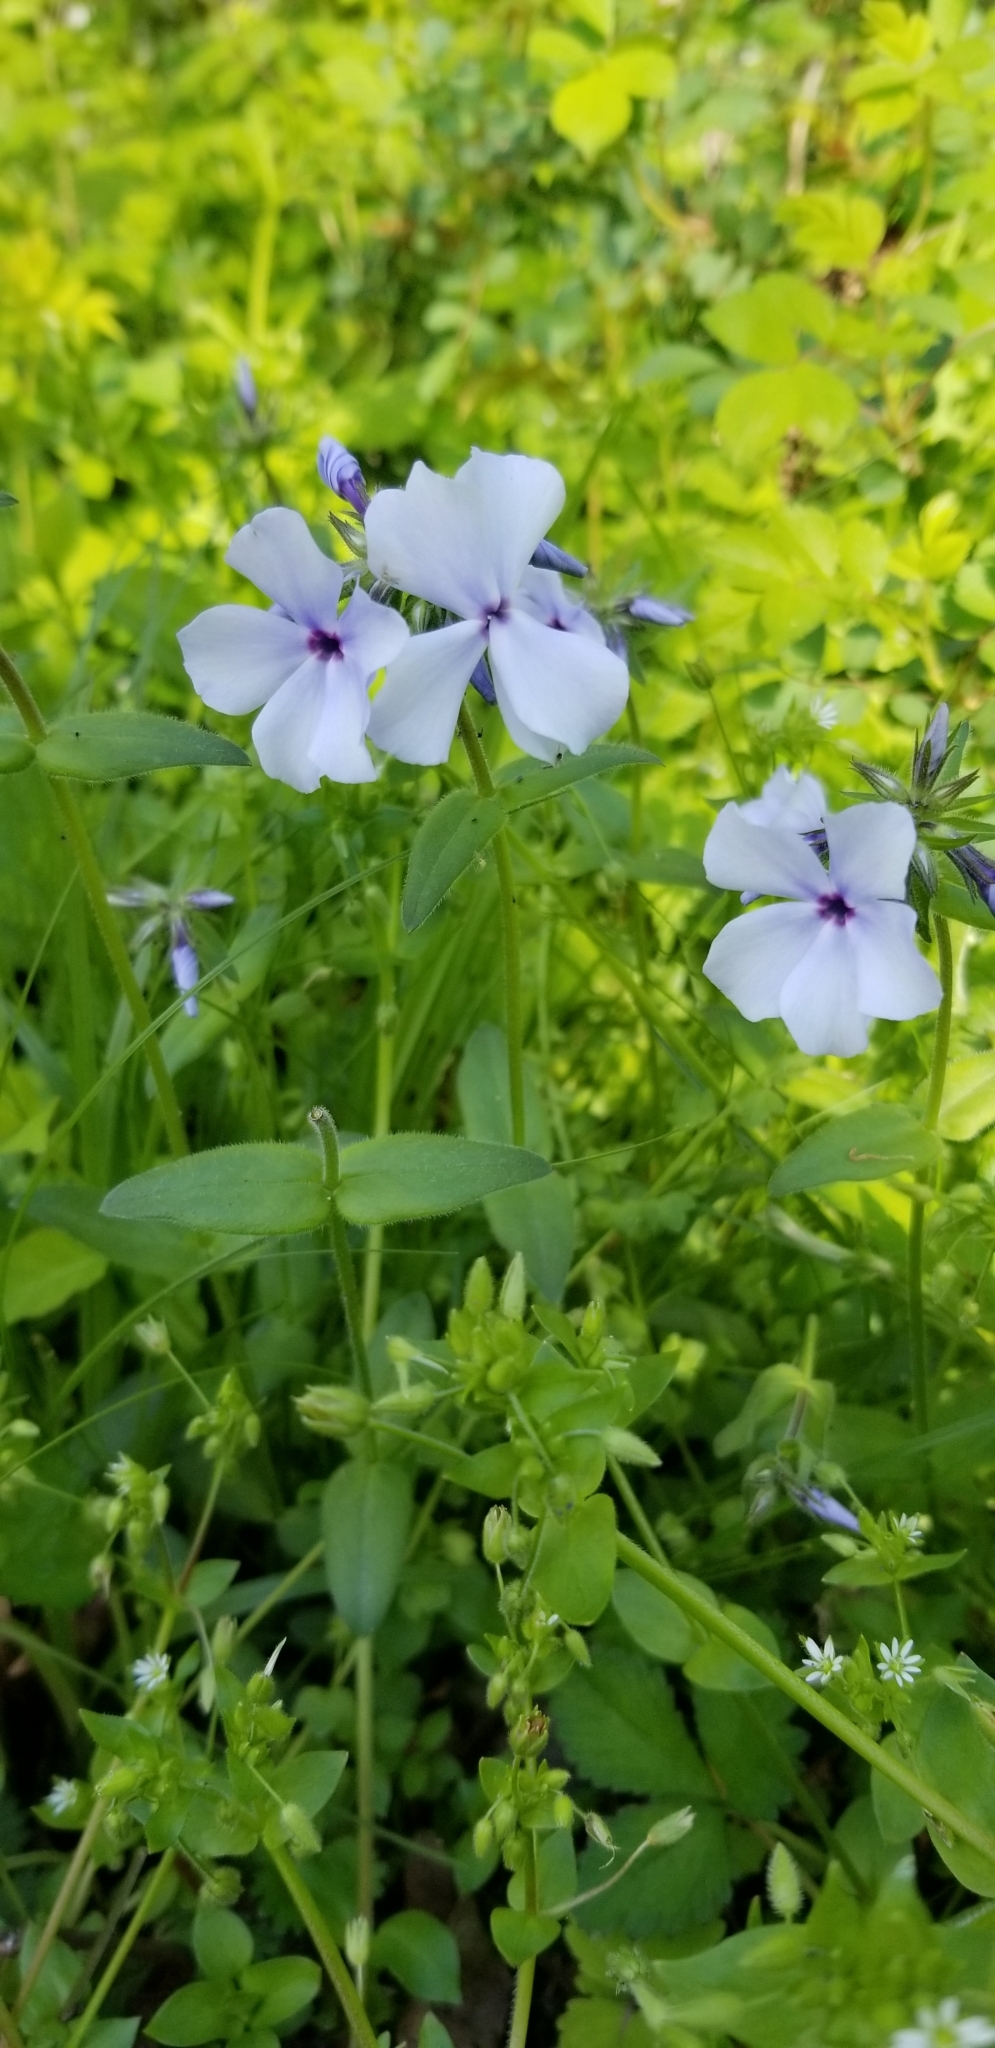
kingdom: Plantae
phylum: Tracheophyta
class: Magnoliopsida
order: Ericales
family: Polemoniaceae
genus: Phlox
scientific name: Phlox divaricata
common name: Blue phlox
